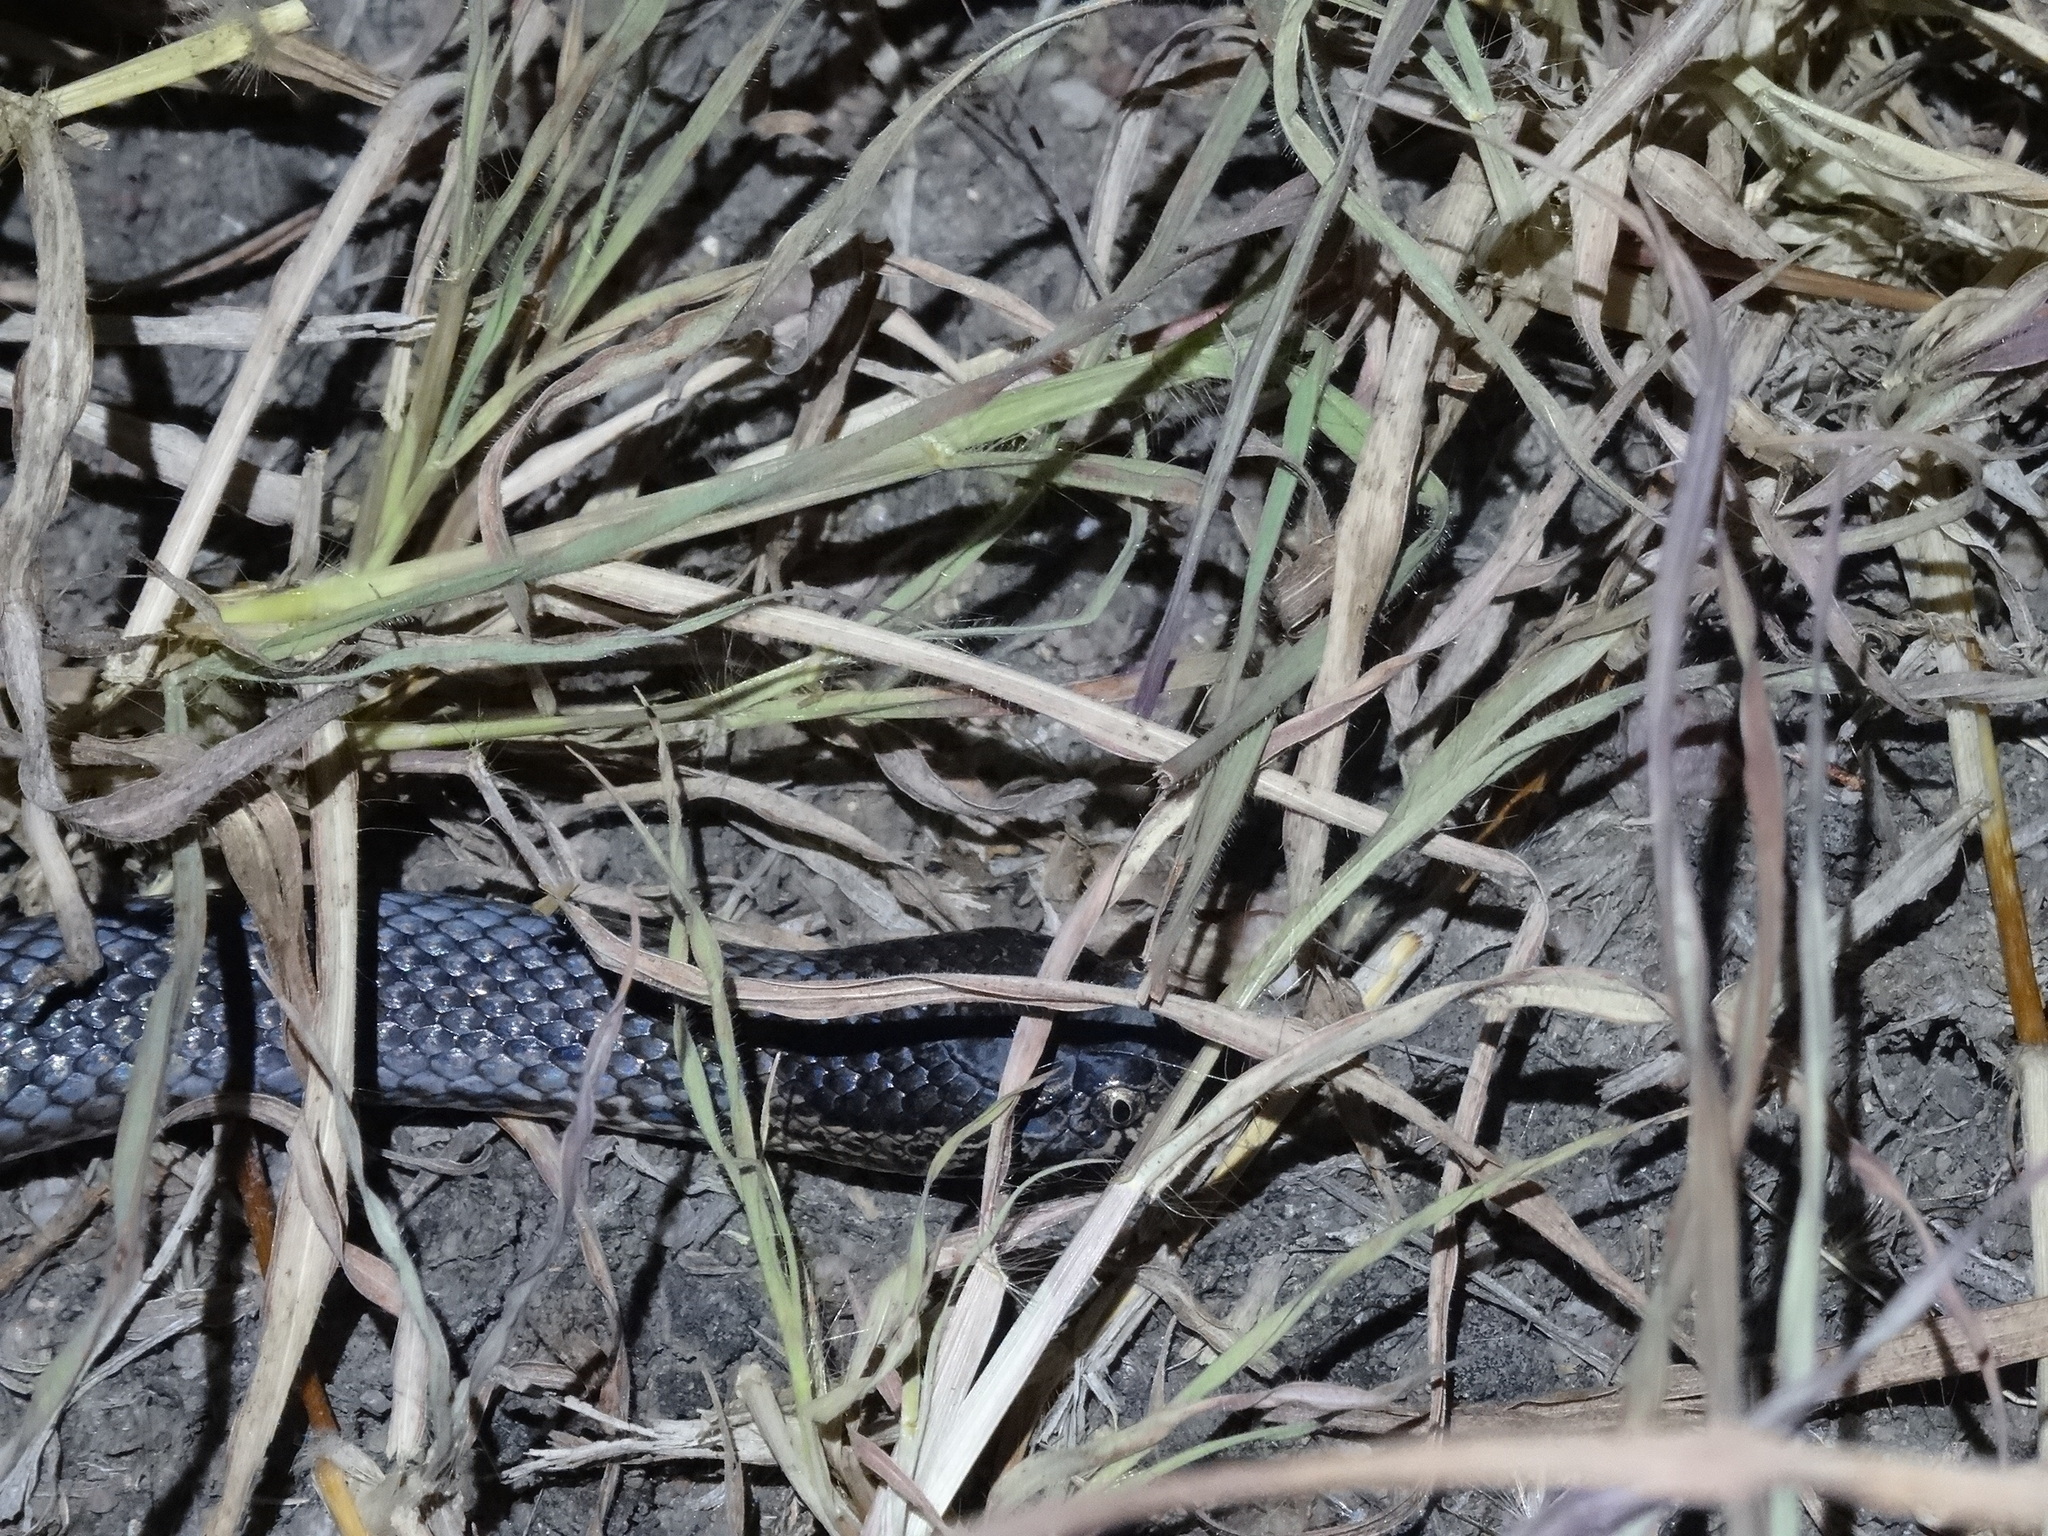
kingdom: Animalia
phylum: Chordata
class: Squamata
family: Elapidae
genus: Denisonia
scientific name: Denisonia maculata
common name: Ornamental snake
